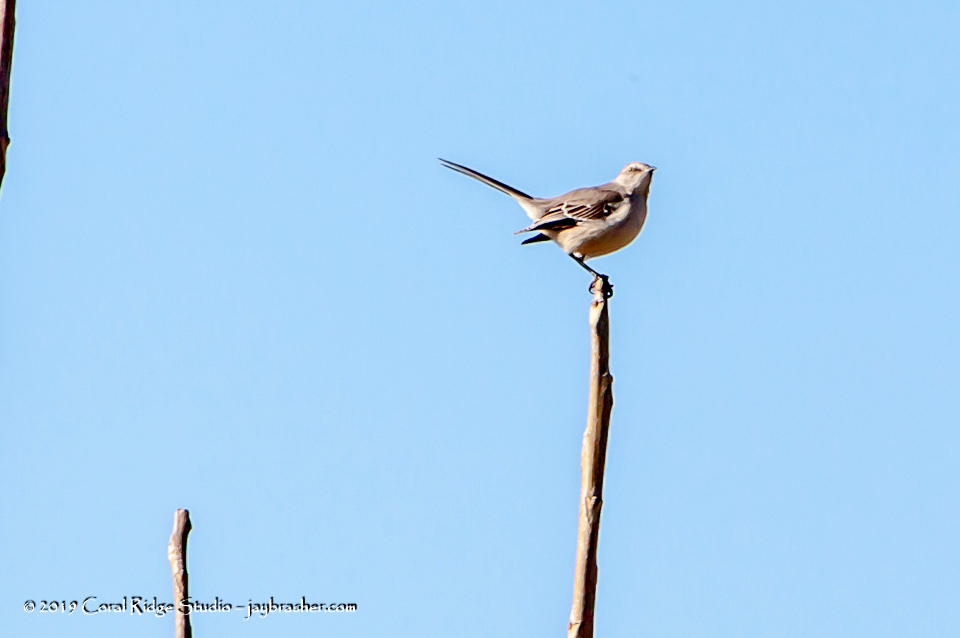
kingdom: Animalia
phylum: Chordata
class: Aves
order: Passeriformes
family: Mimidae
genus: Mimus
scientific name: Mimus polyglottos
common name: Northern mockingbird
